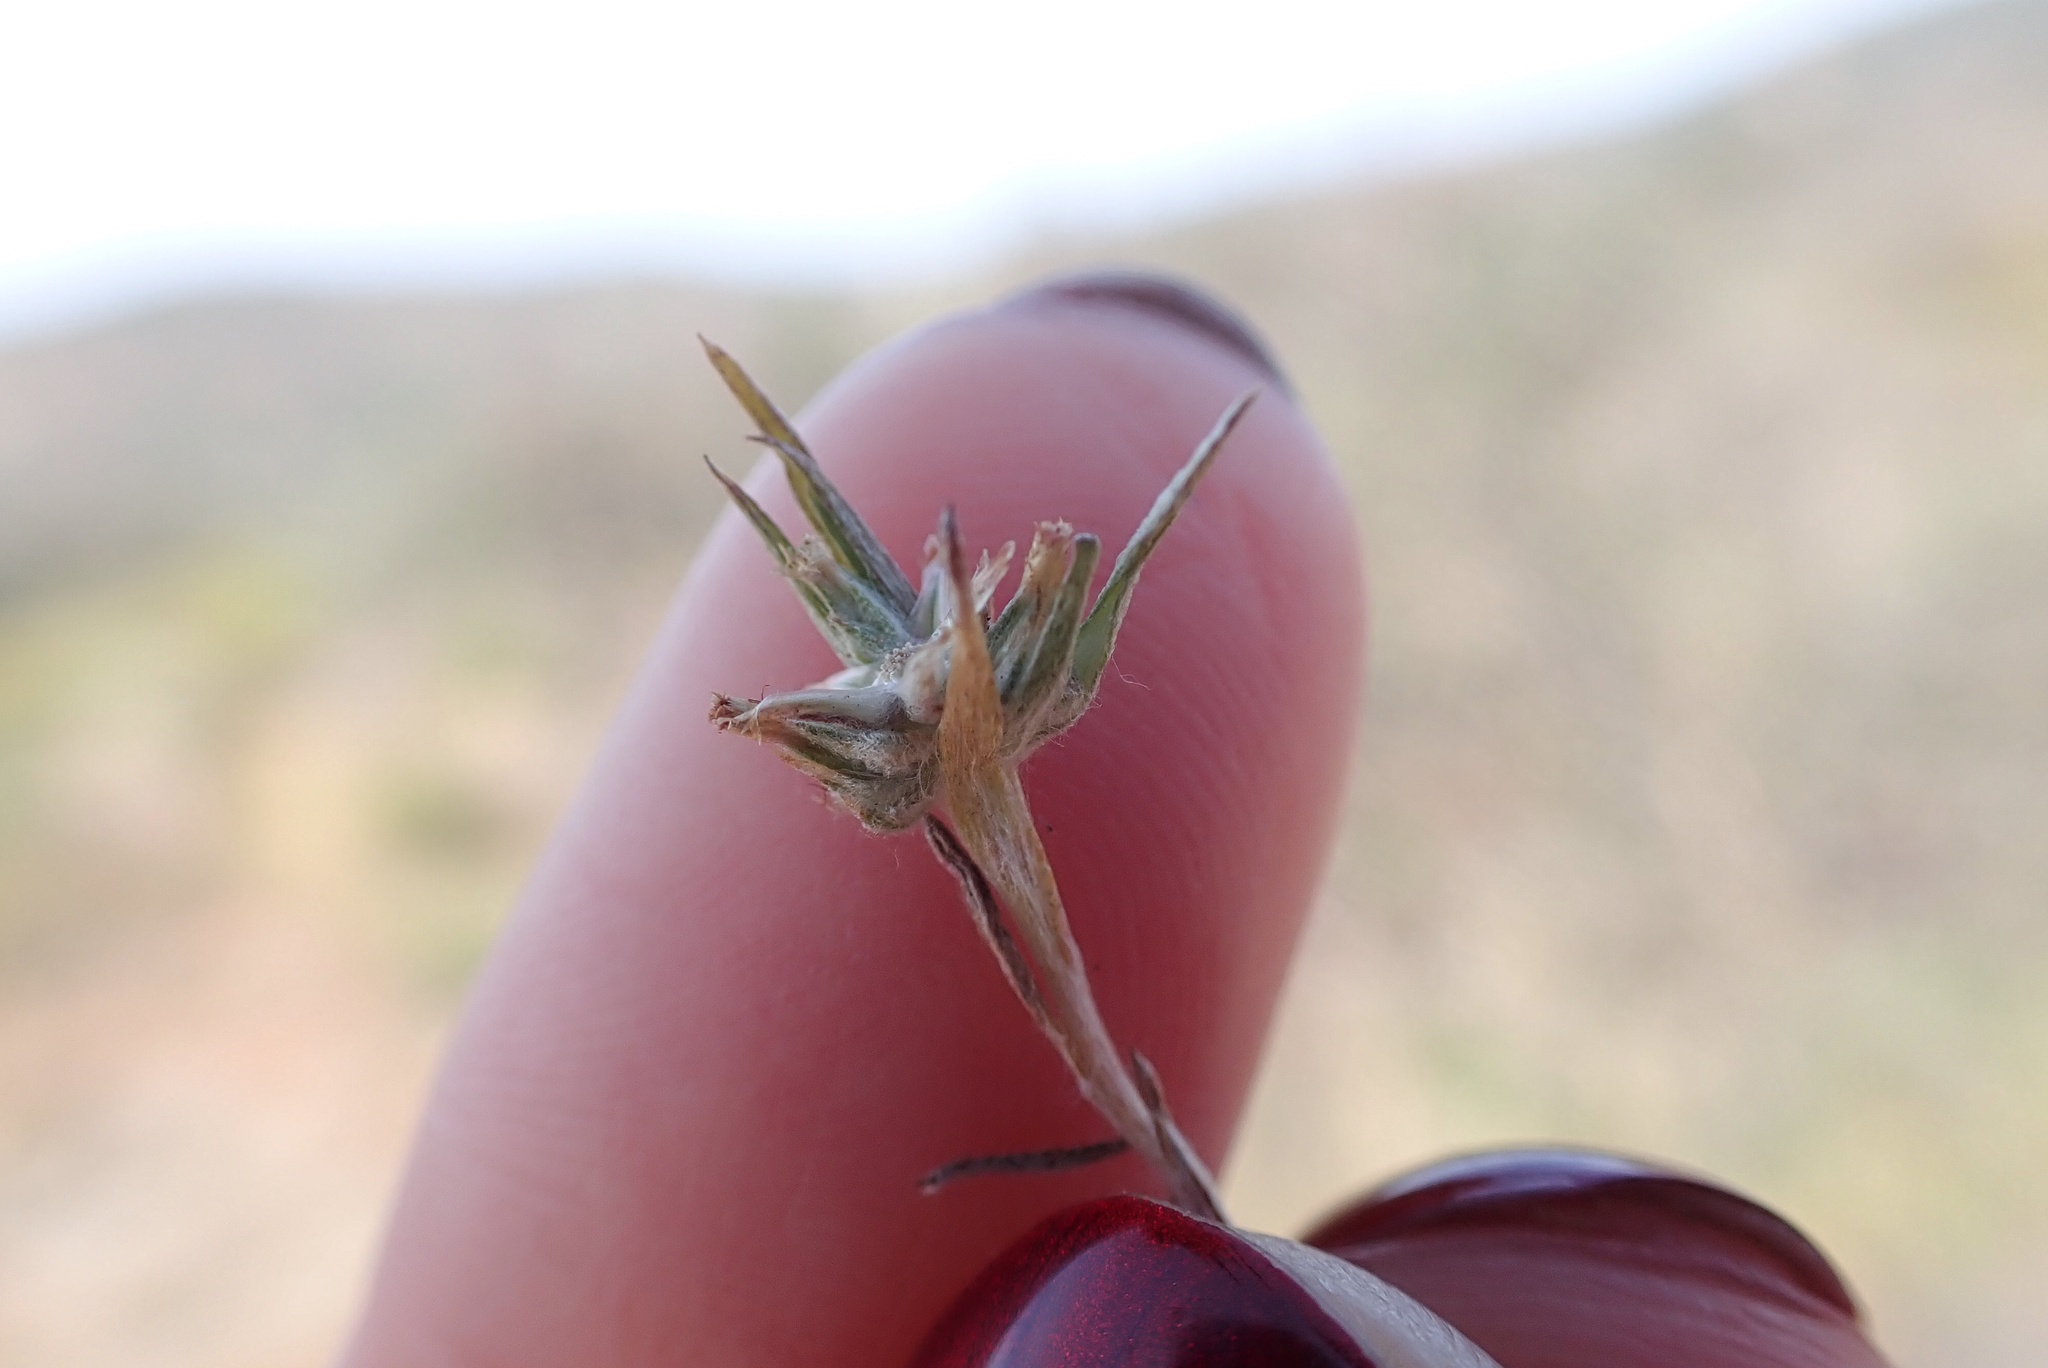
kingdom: Plantae
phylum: Tracheophyta
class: Magnoliopsida
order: Asterales
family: Asteraceae
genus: Logfia
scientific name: Logfia gallica
